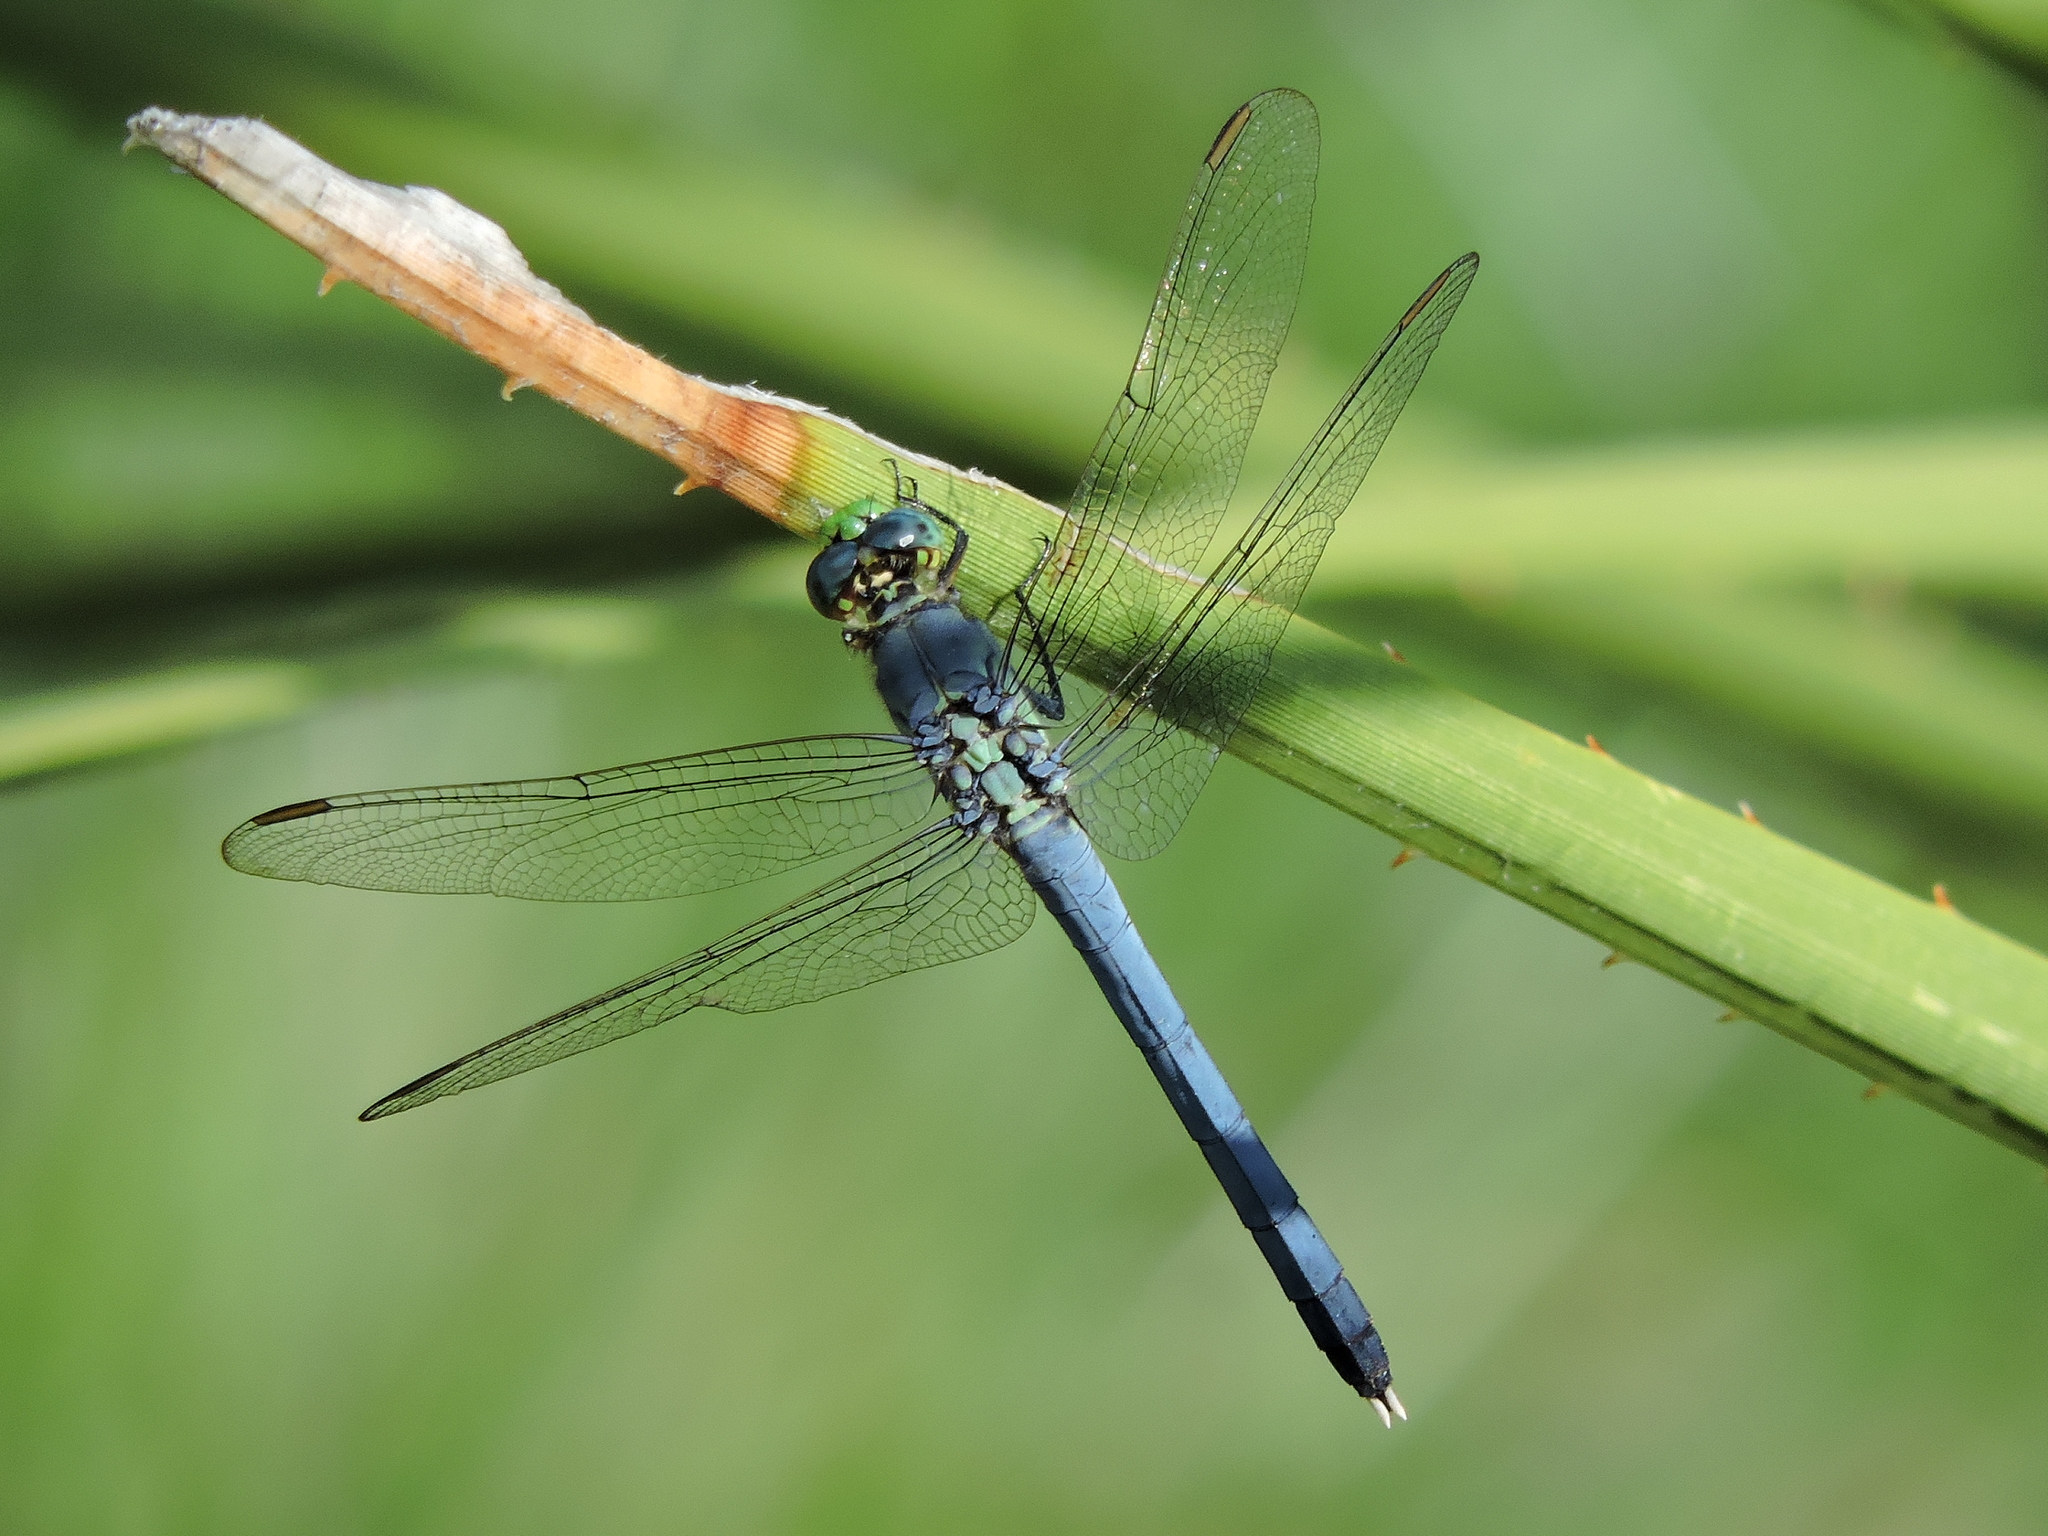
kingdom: Animalia
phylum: Arthropoda
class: Insecta
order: Odonata
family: Libellulidae
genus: Erythemis
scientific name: Erythemis simplicicollis
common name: Eastern pondhawk
